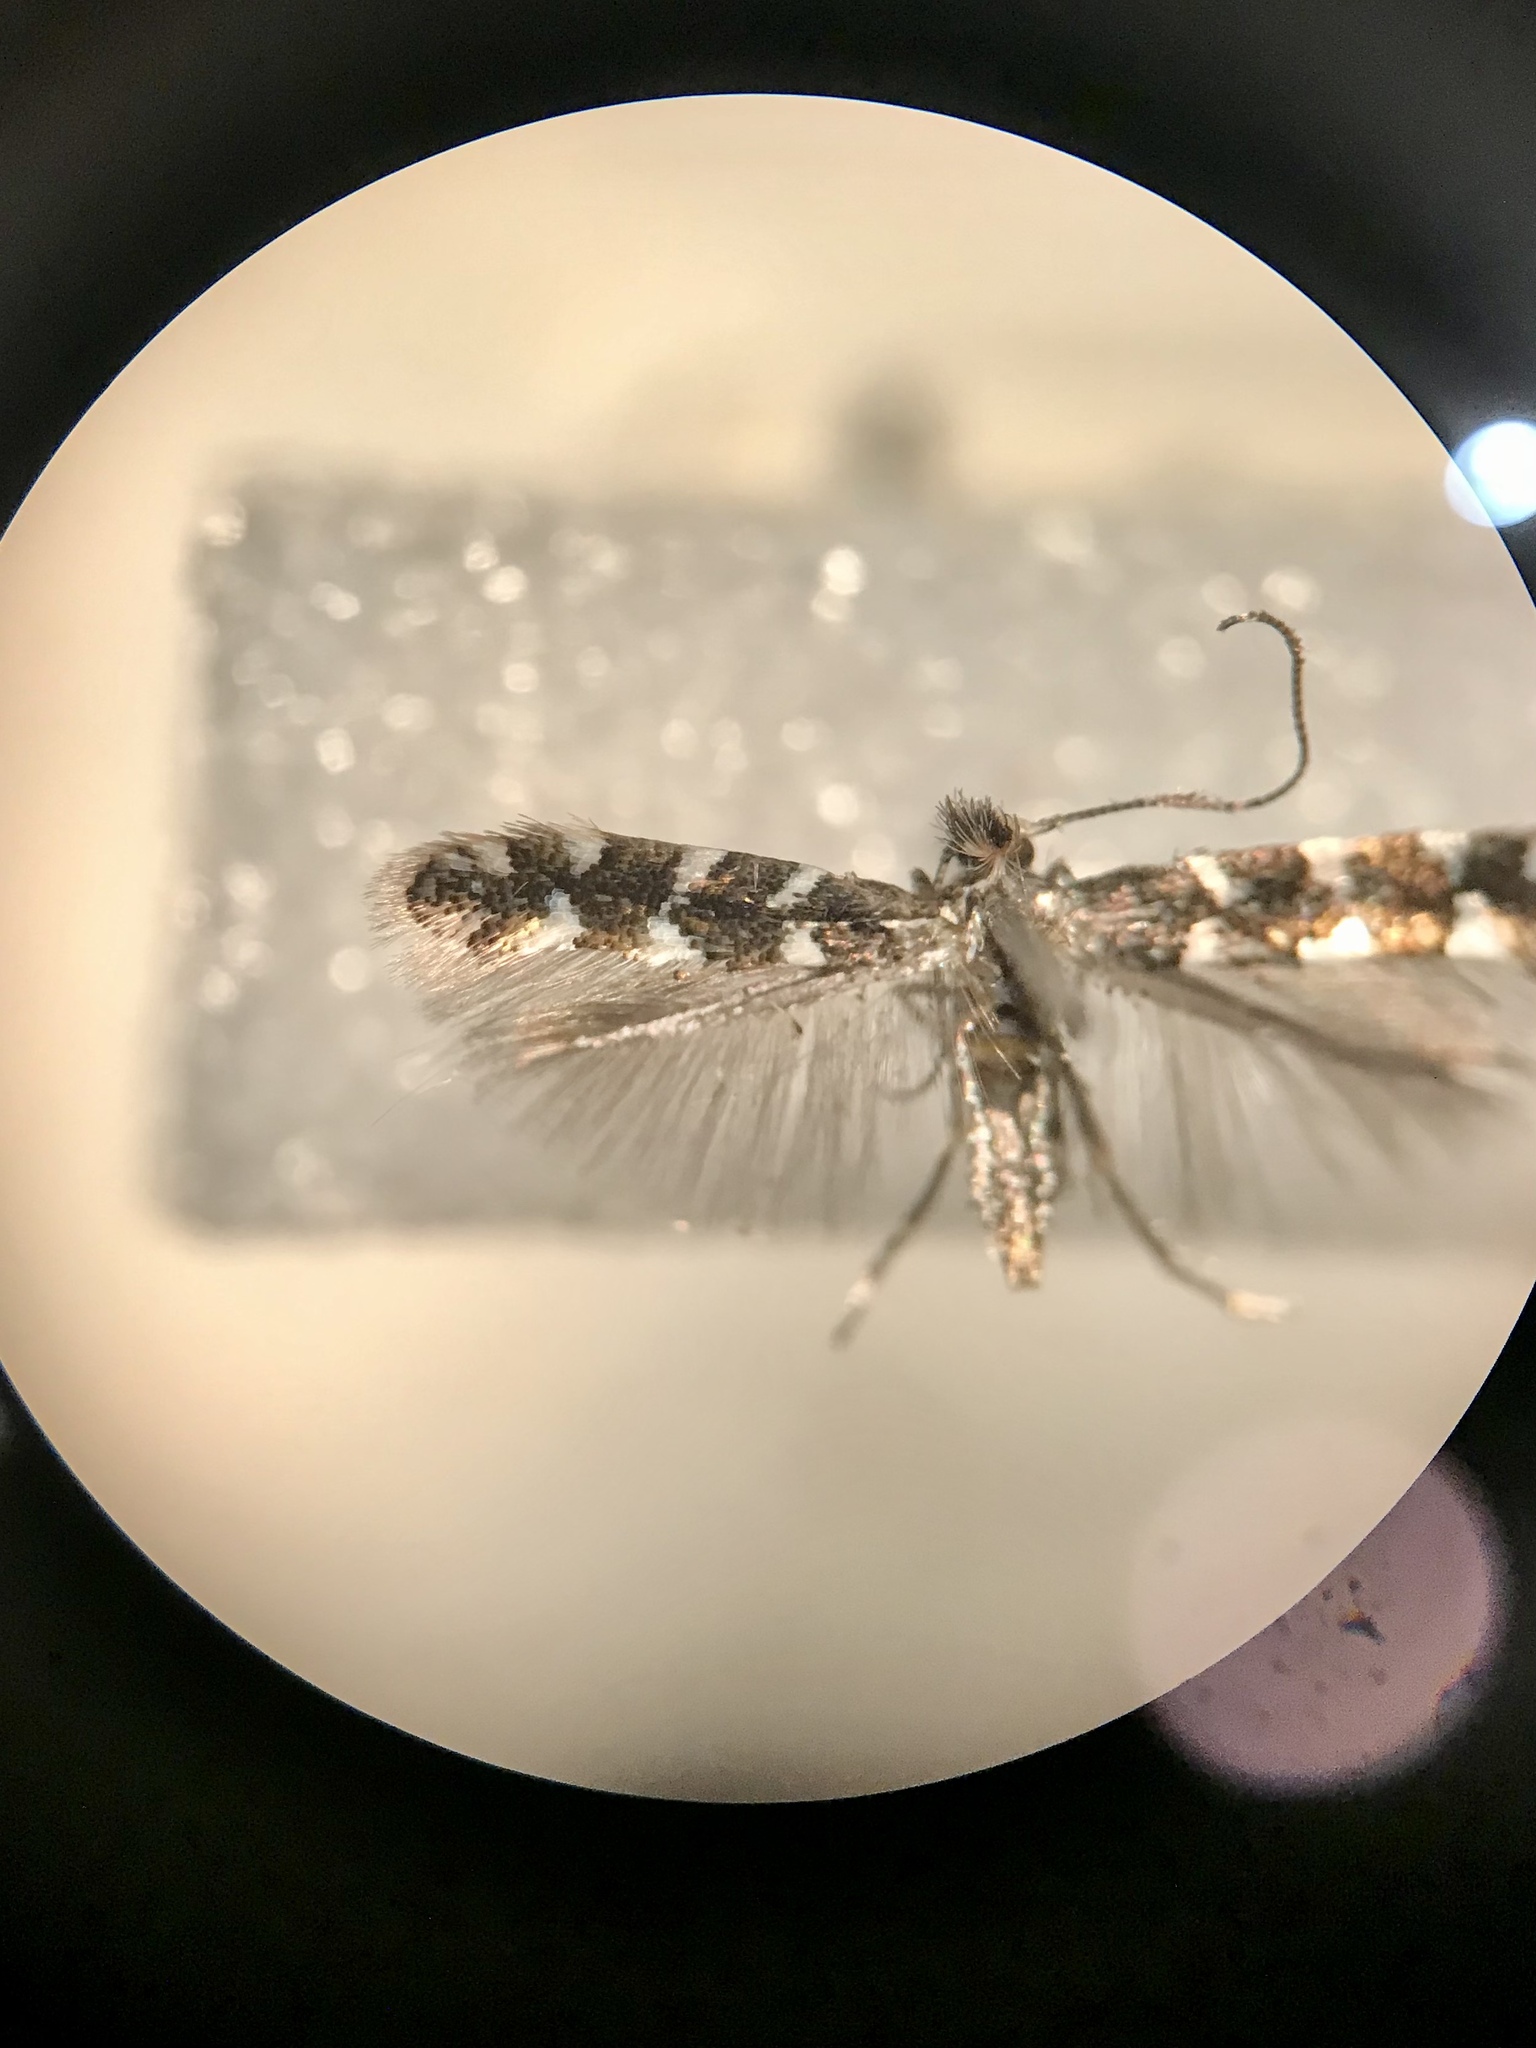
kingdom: Animalia
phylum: Arthropoda
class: Insecta
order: Lepidoptera
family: Gracillariidae
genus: Protolithocolletis
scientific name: Protolithocolletis lathyri
